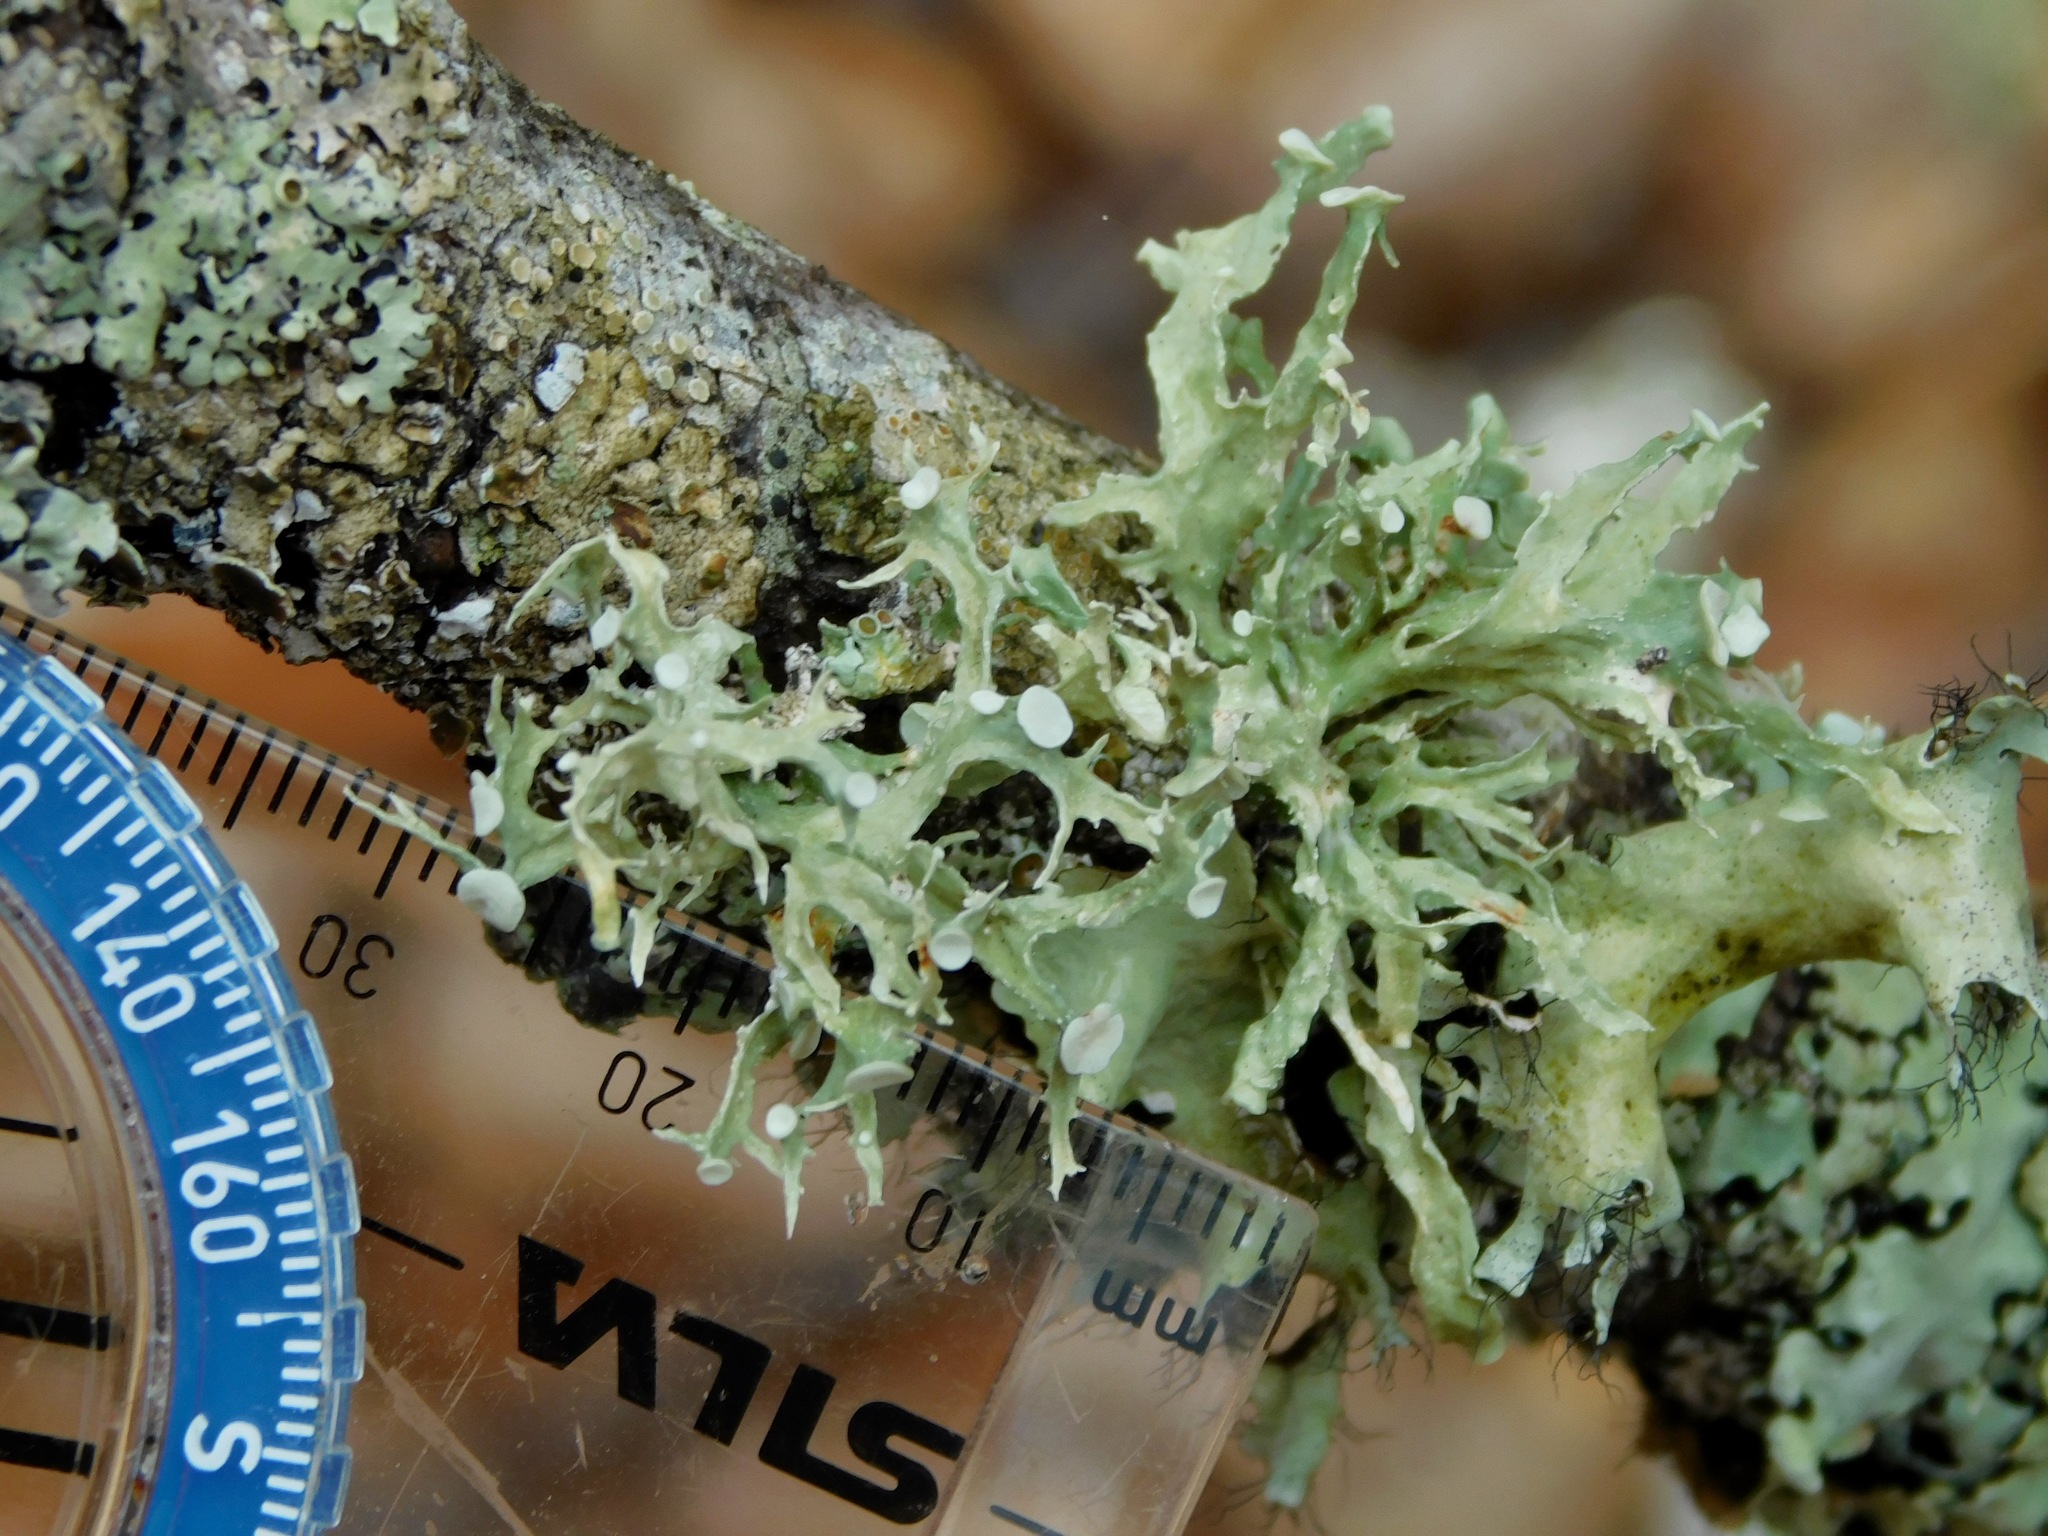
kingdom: Fungi
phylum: Ascomycota
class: Lecanoromycetes
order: Lecanorales
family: Ramalinaceae
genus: Ramalina
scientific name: Ramalina americana
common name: Sinewed bush lichen
